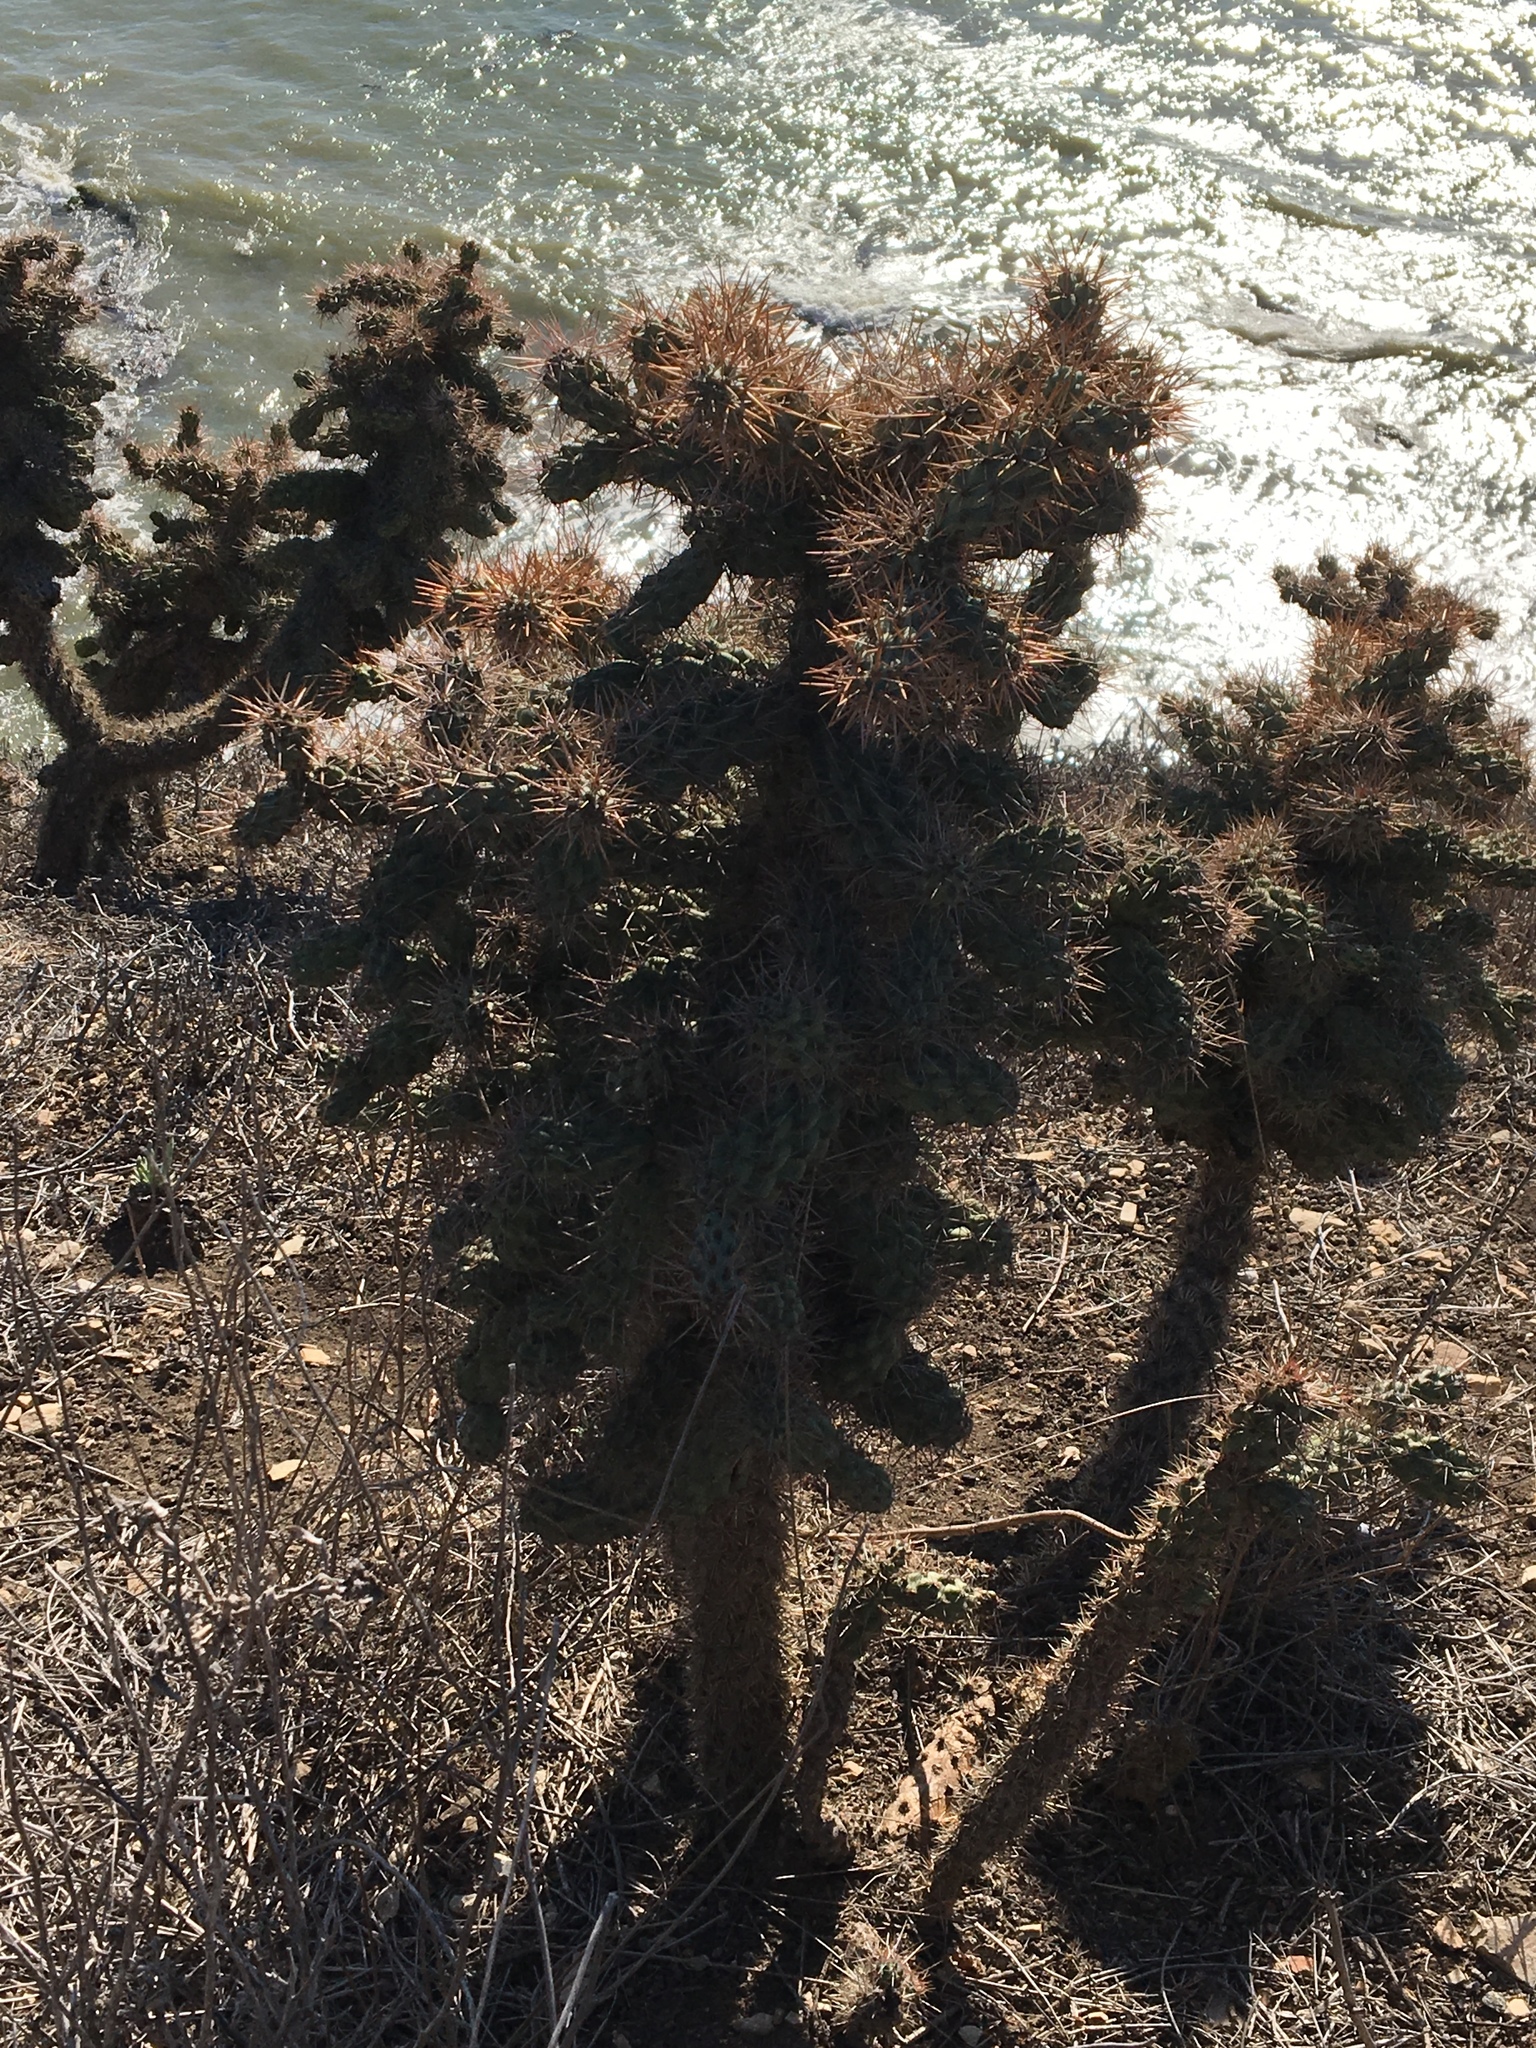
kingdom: Plantae
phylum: Tracheophyta
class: Magnoliopsida
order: Caryophyllales
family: Cactaceae
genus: Cylindropuntia
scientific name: Cylindropuntia prolifera
